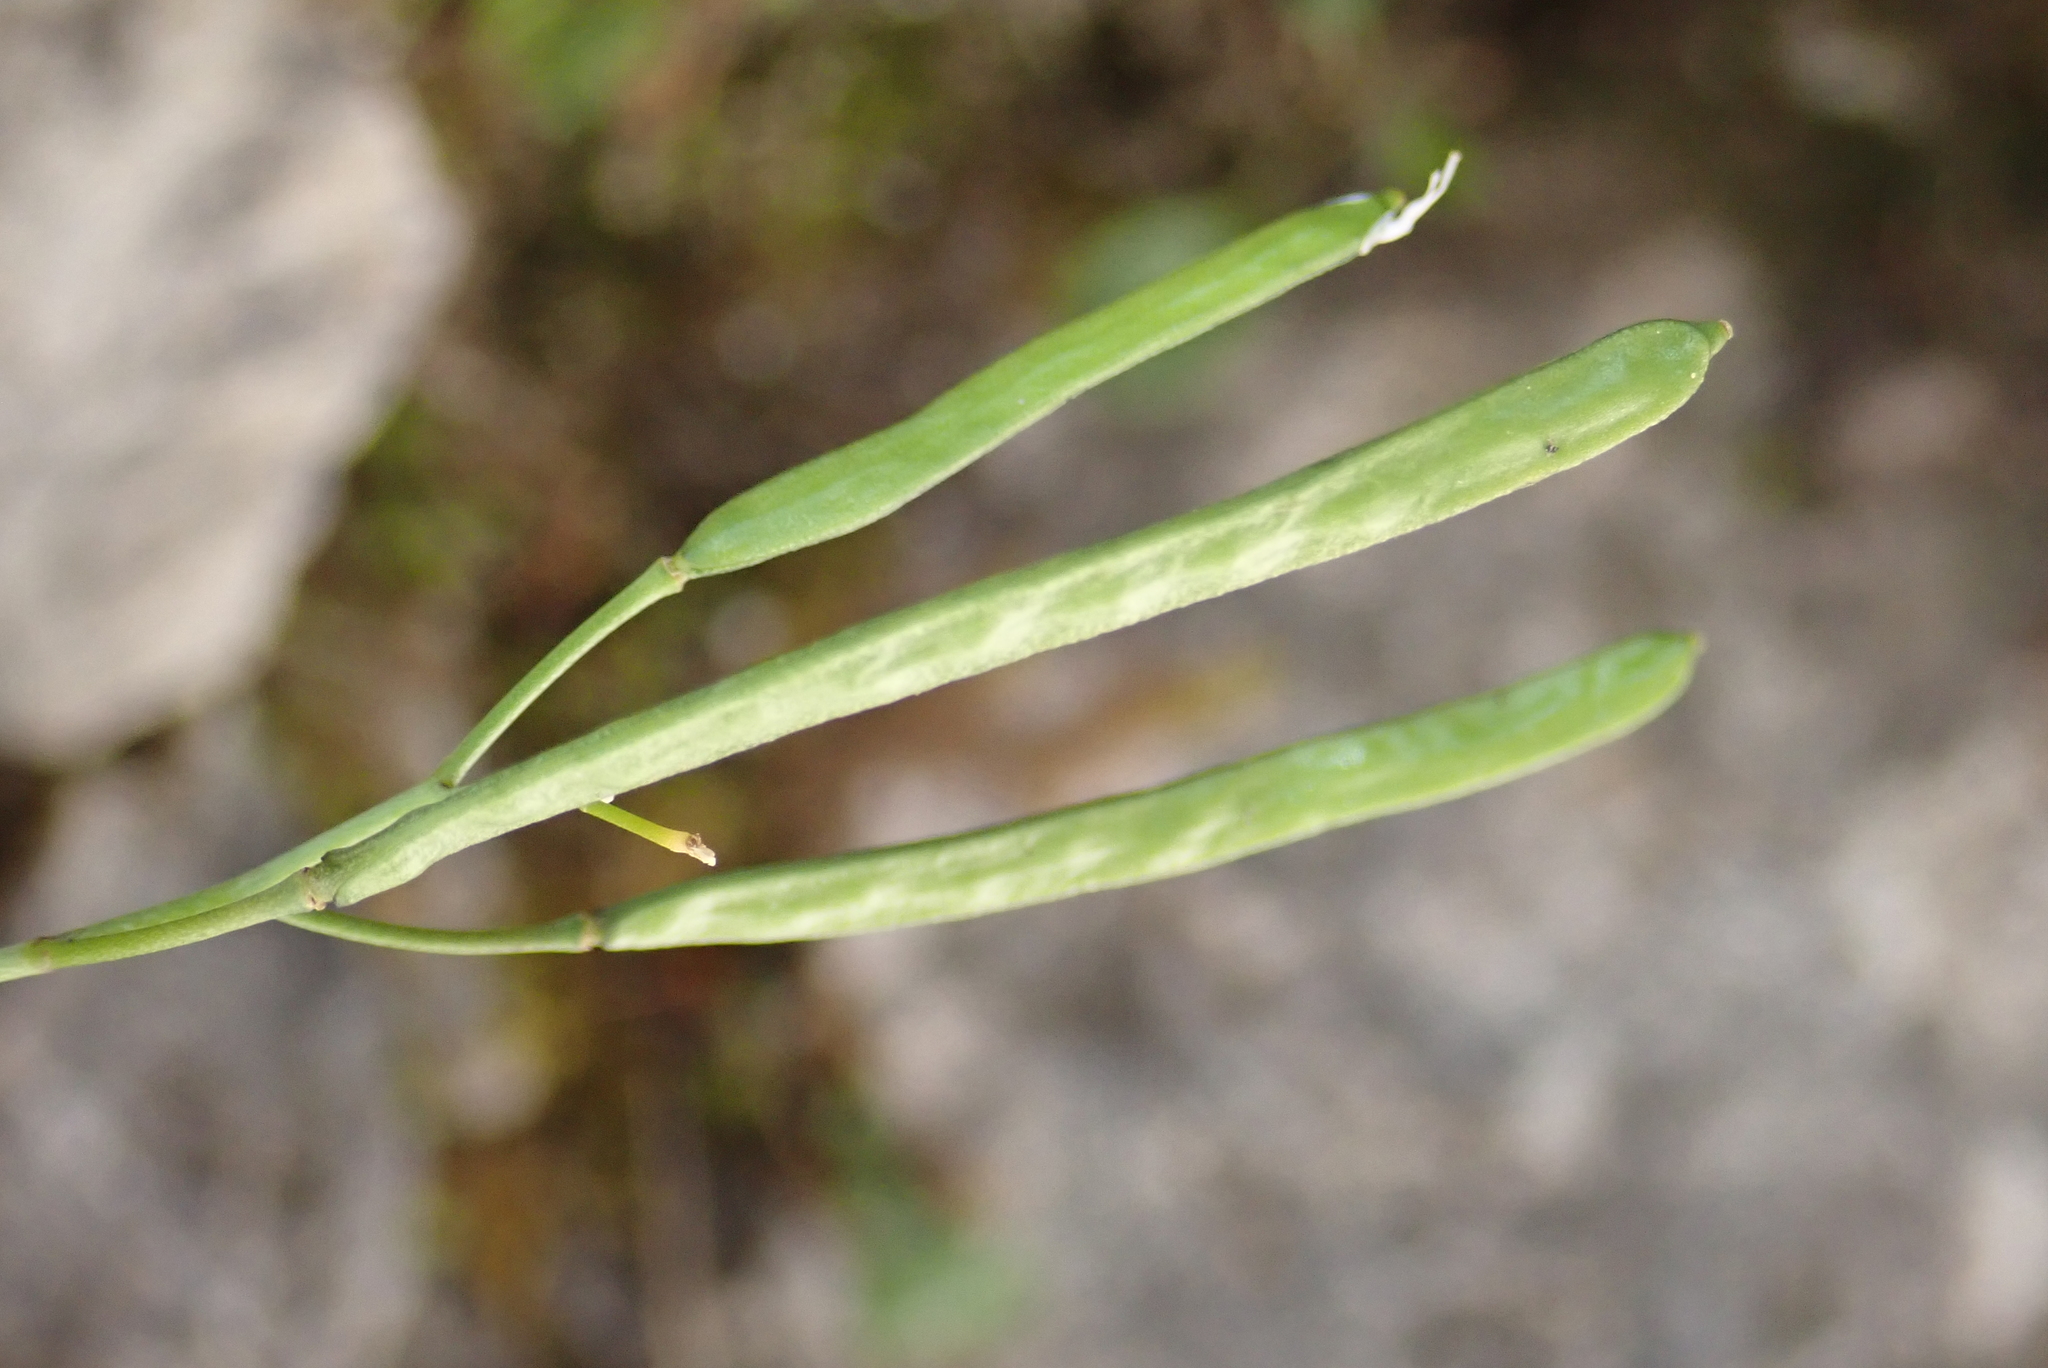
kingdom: Plantae
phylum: Tracheophyta
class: Magnoliopsida
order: Brassicales
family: Brassicaceae
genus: Arabis
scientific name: Arabis stellulata
